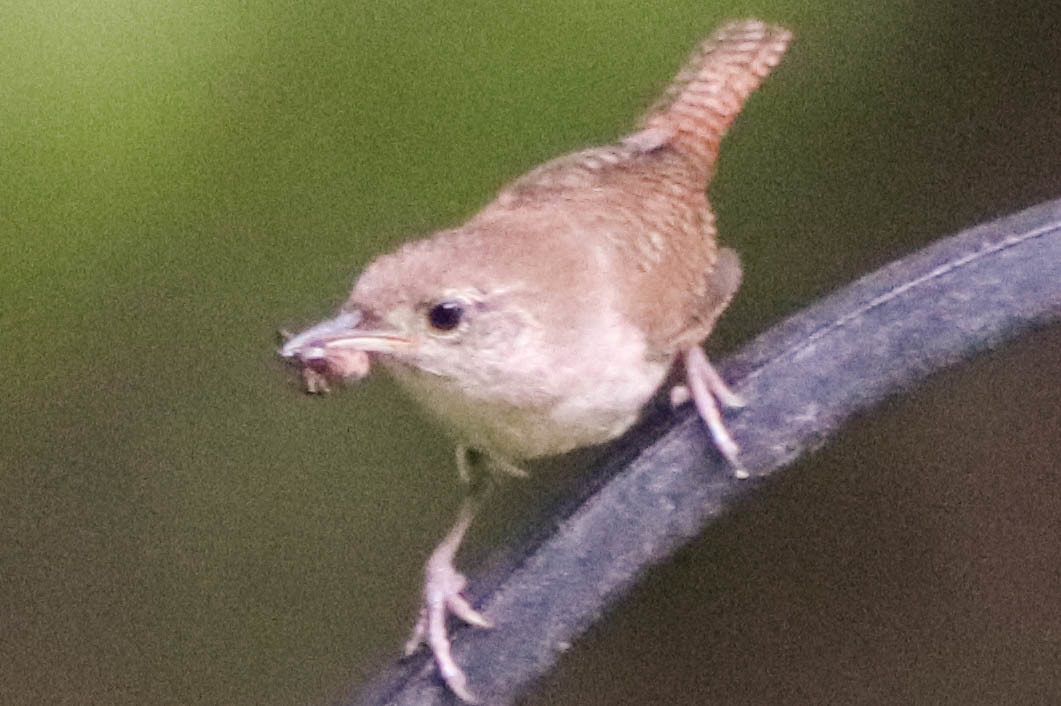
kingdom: Animalia
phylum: Chordata
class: Aves
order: Passeriformes
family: Troglodytidae
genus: Troglodytes
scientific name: Troglodytes aedon
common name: House wren
